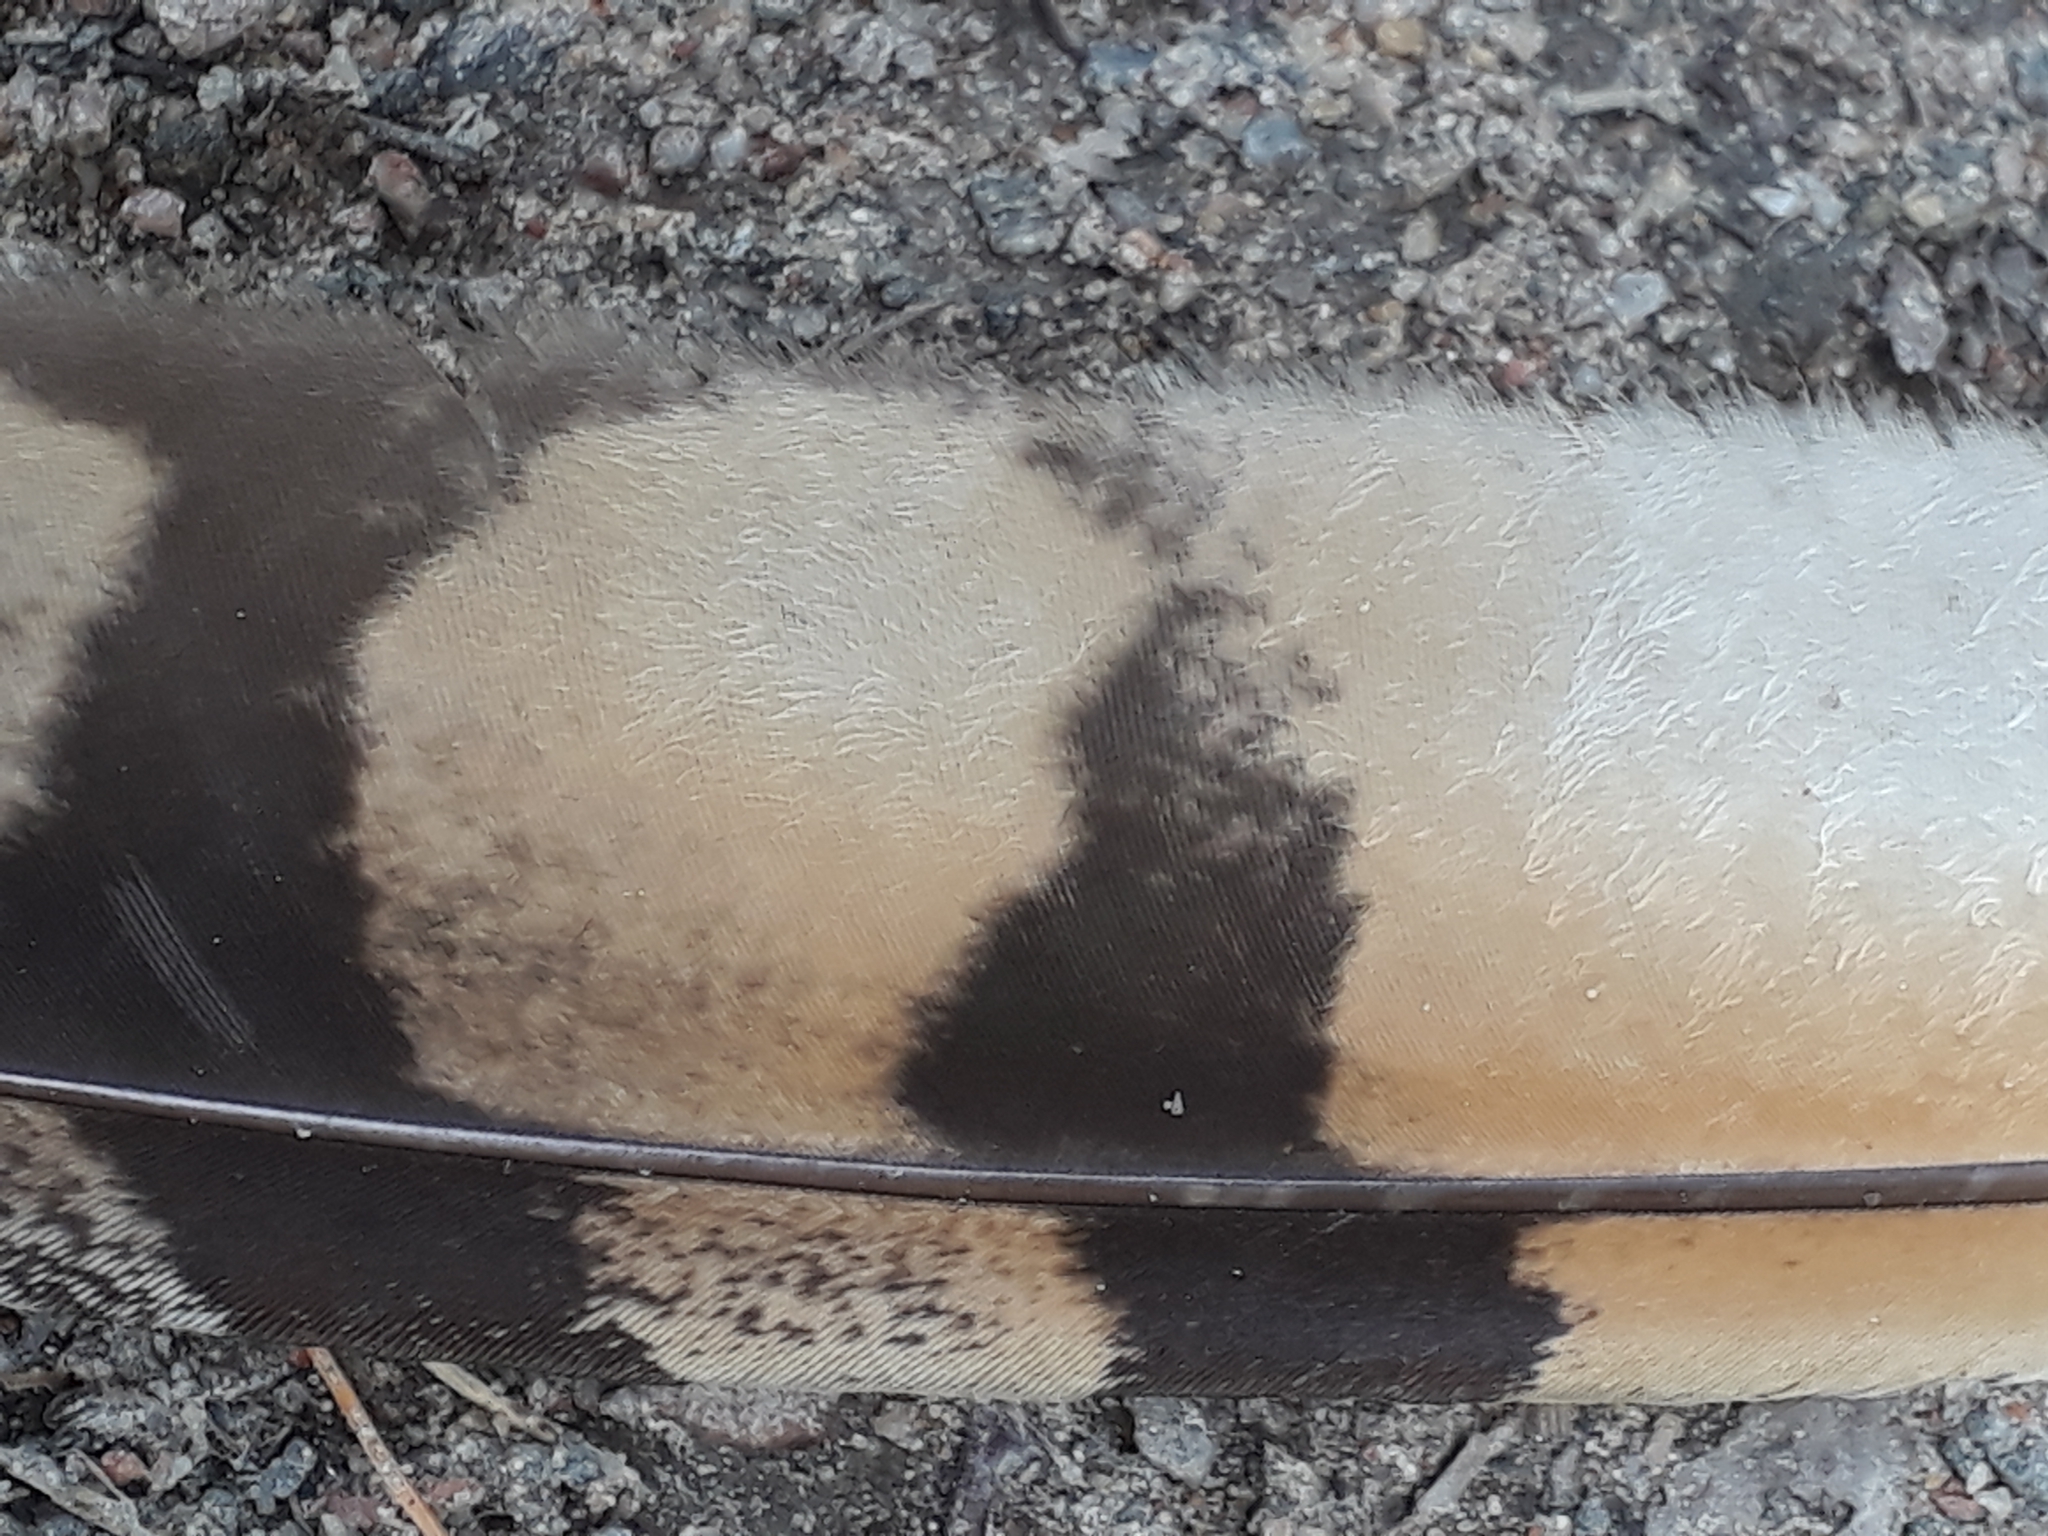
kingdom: Animalia
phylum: Chordata
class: Aves
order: Strigiformes
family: Strigidae
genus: Asio
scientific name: Asio otus
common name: Long-eared owl
